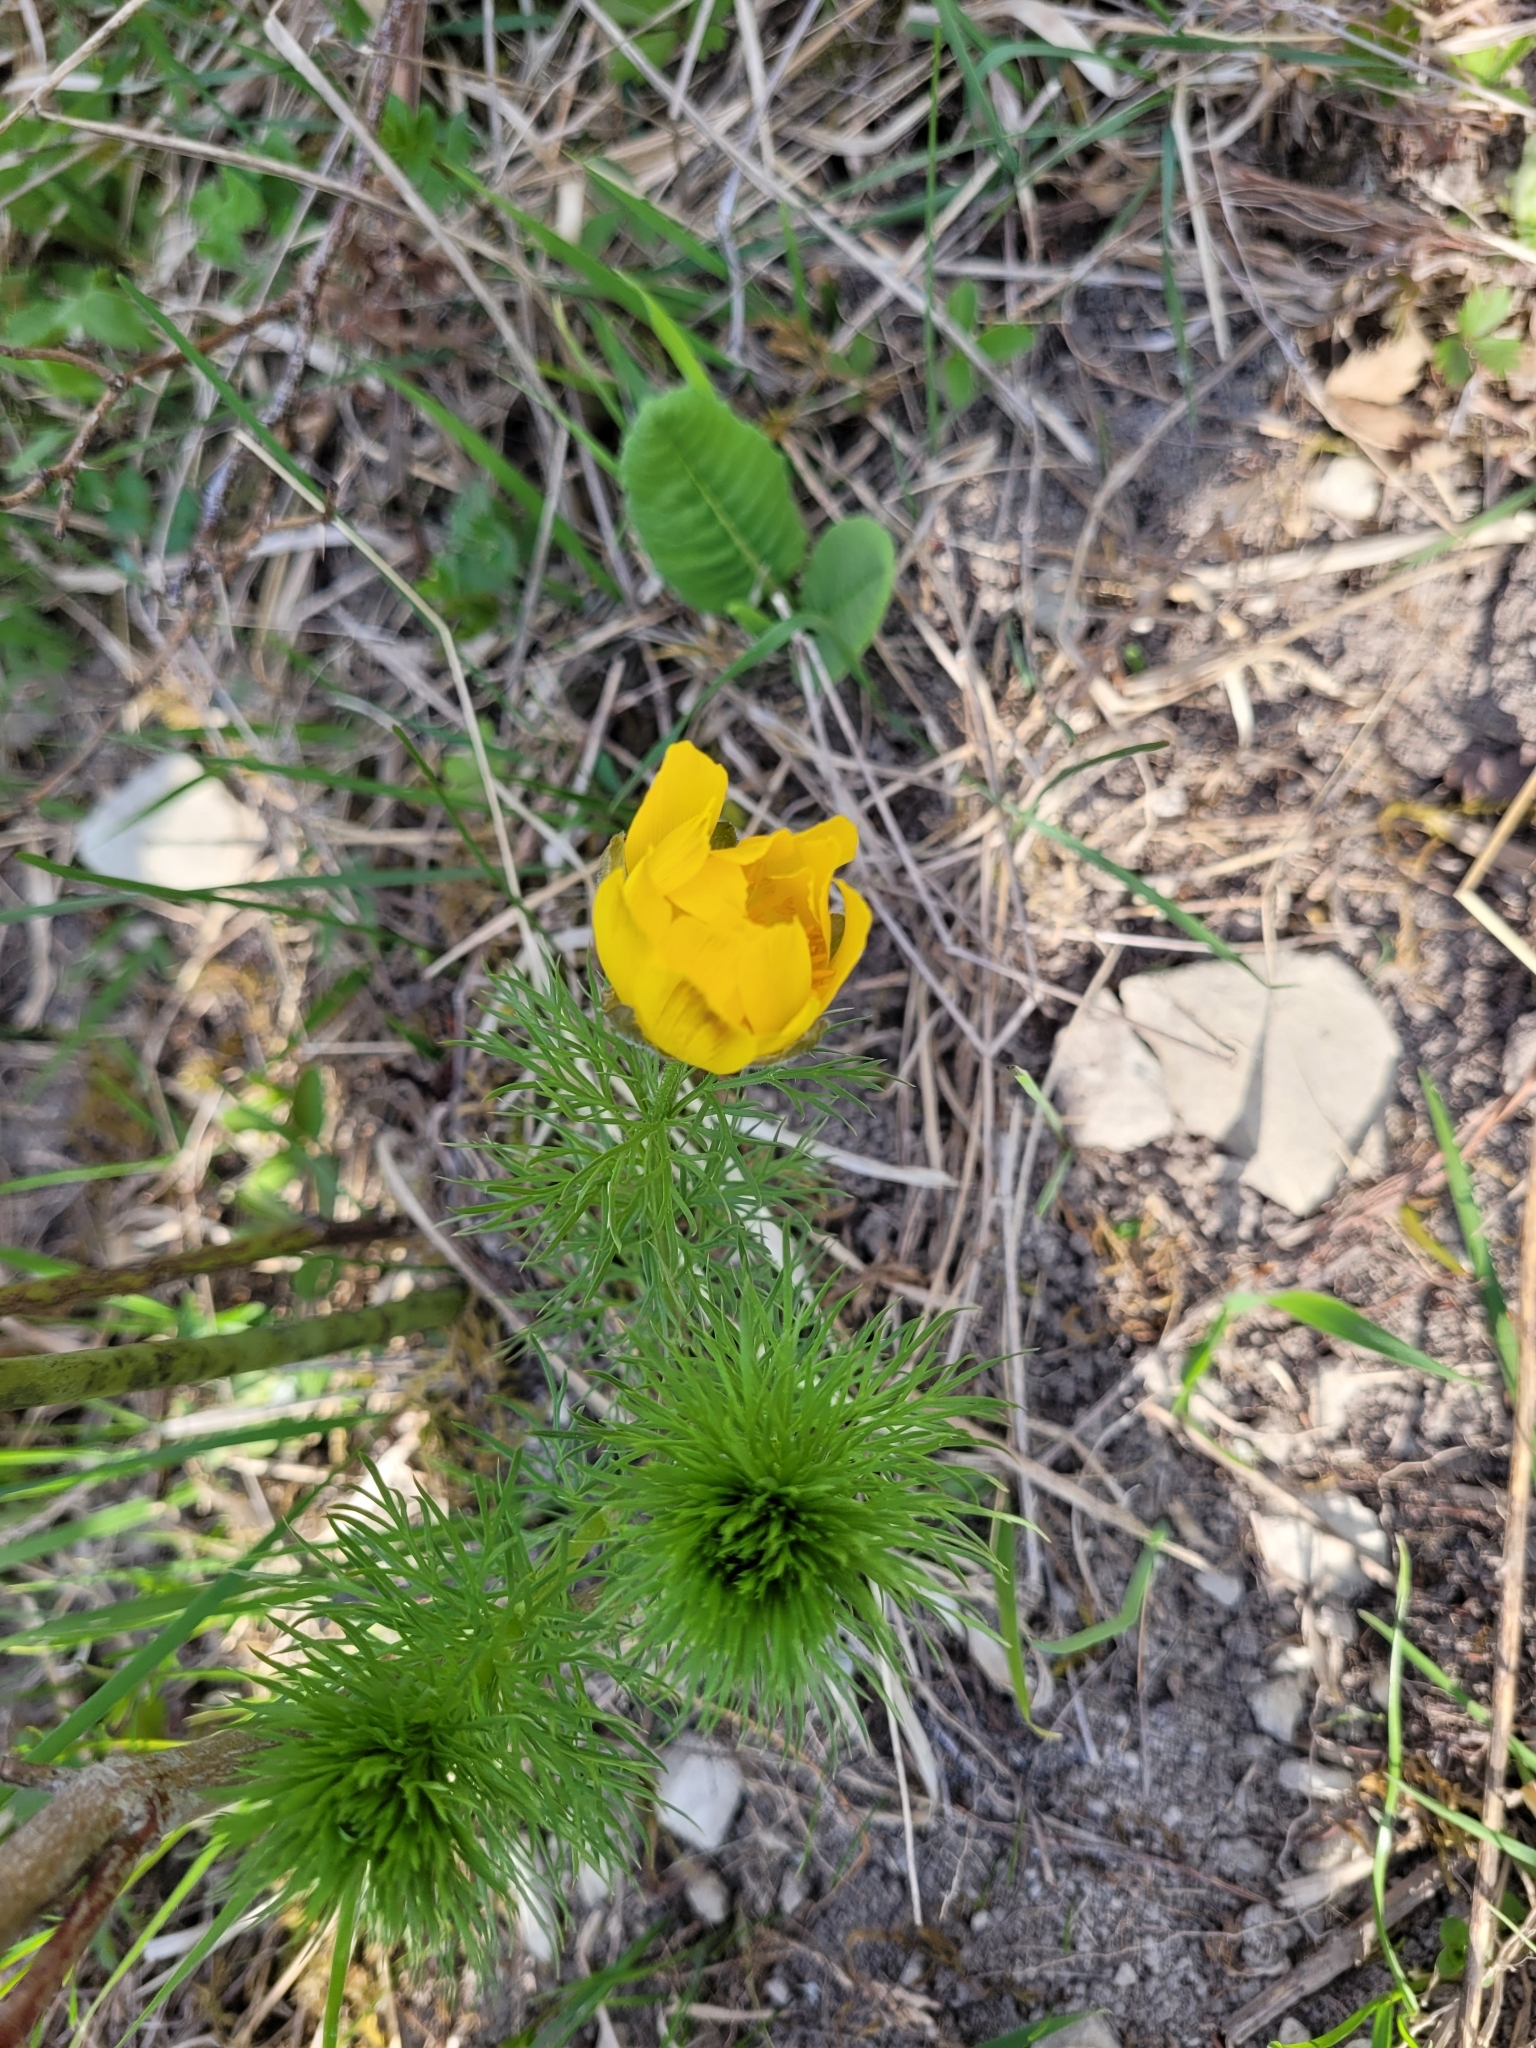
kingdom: Plantae
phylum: Tracheophyta
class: Magnoliopsida
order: Ranunculales
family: Ranunculaceae
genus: Adonis
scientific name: Adonis vernalis
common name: Yellow pheasants-eye
